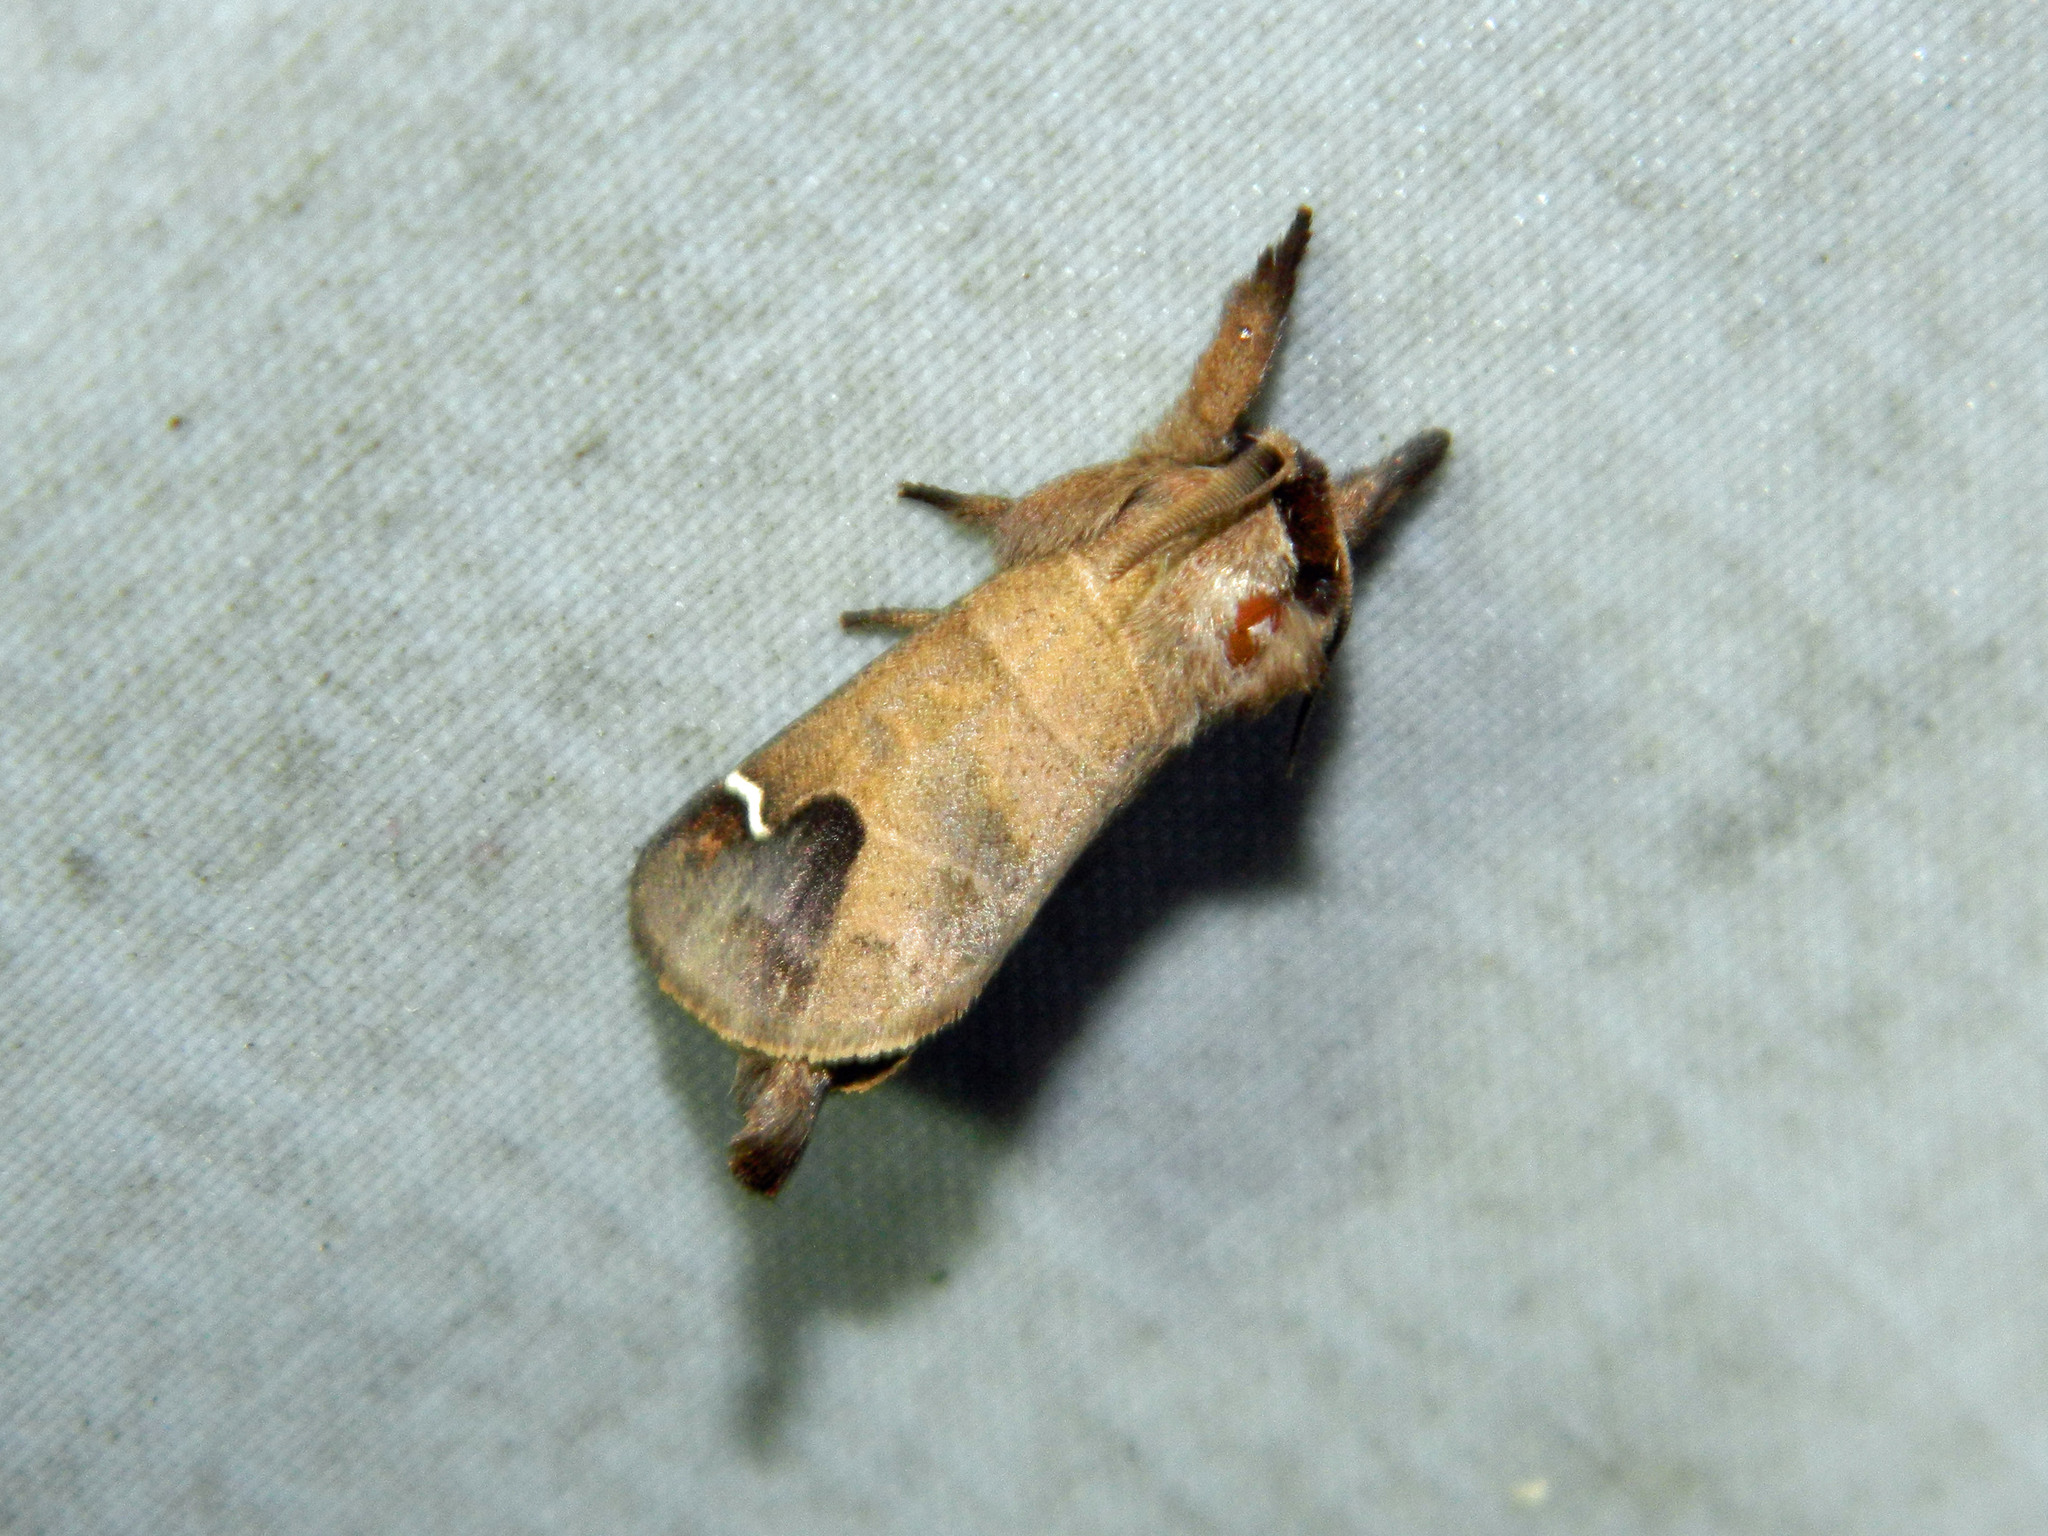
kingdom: Animalia
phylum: Arthropoda
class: Insecta
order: Lepidoptera
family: Notodontidae
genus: Clostera
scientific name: Clostera albosigma
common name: Sigmoid prominent
